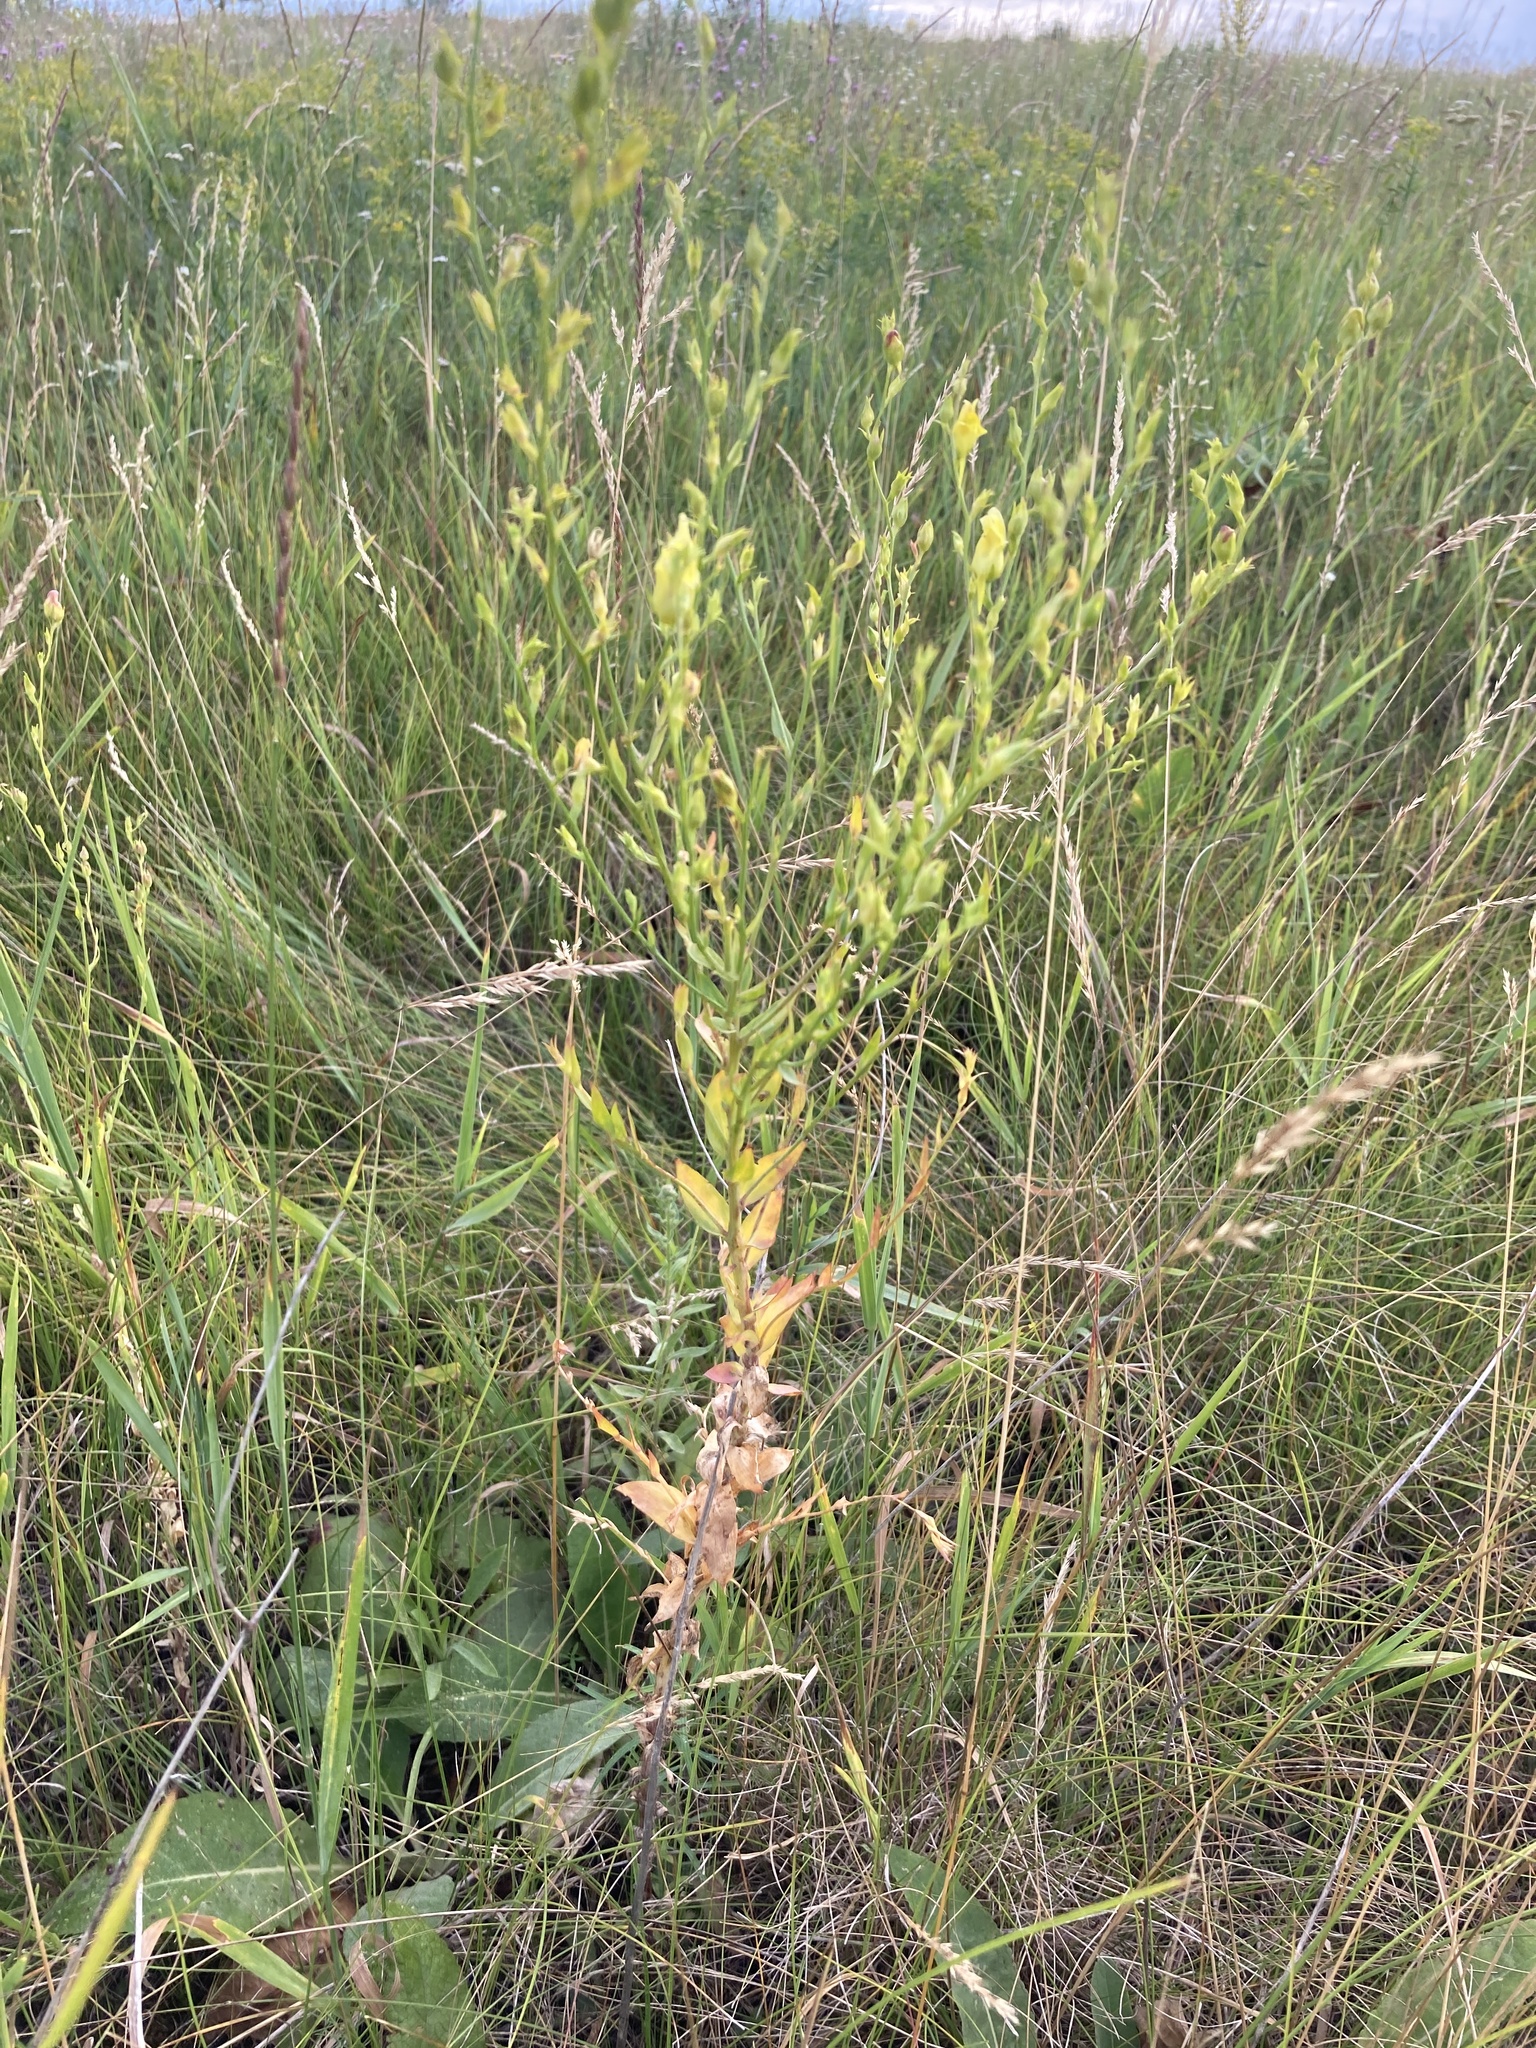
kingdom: Plantae
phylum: Tracheophyta
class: Magnoliopsida
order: Lamiales
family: Plantaginaceae
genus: Linaria
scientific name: Linaria genistifolia
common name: Broomleaf toadflax
